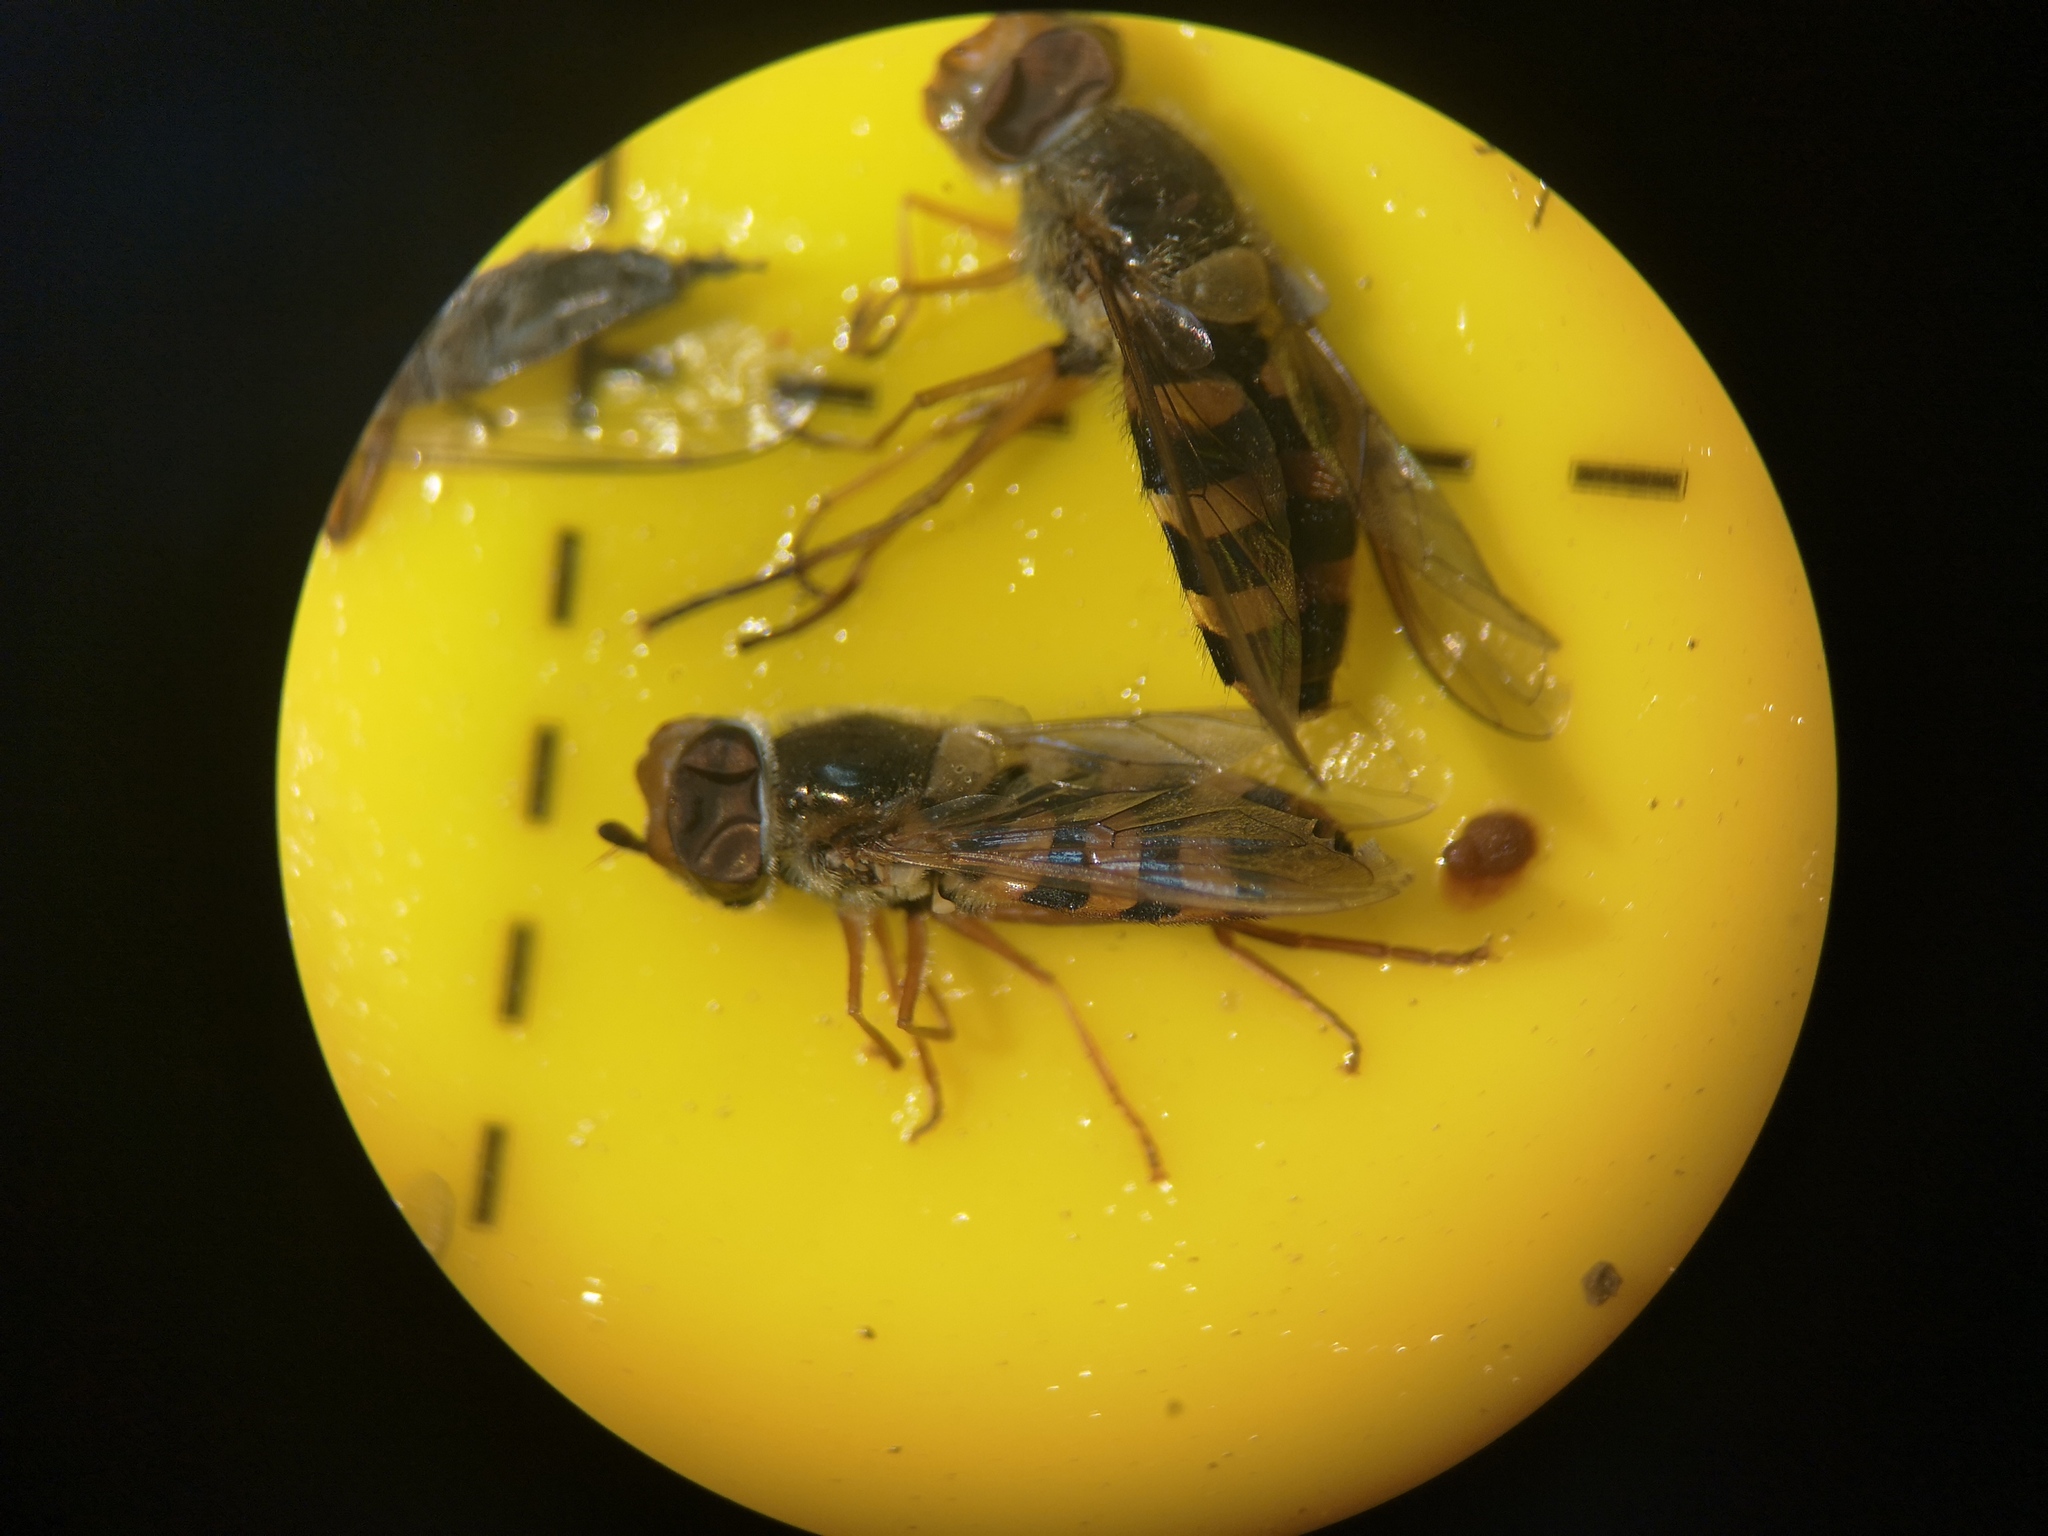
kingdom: Animalia
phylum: Arthropoda
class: Insecta
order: Diptera
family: Syrphidae
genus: Syrphus
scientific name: Syrphus ribesii
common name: Common flower fly
